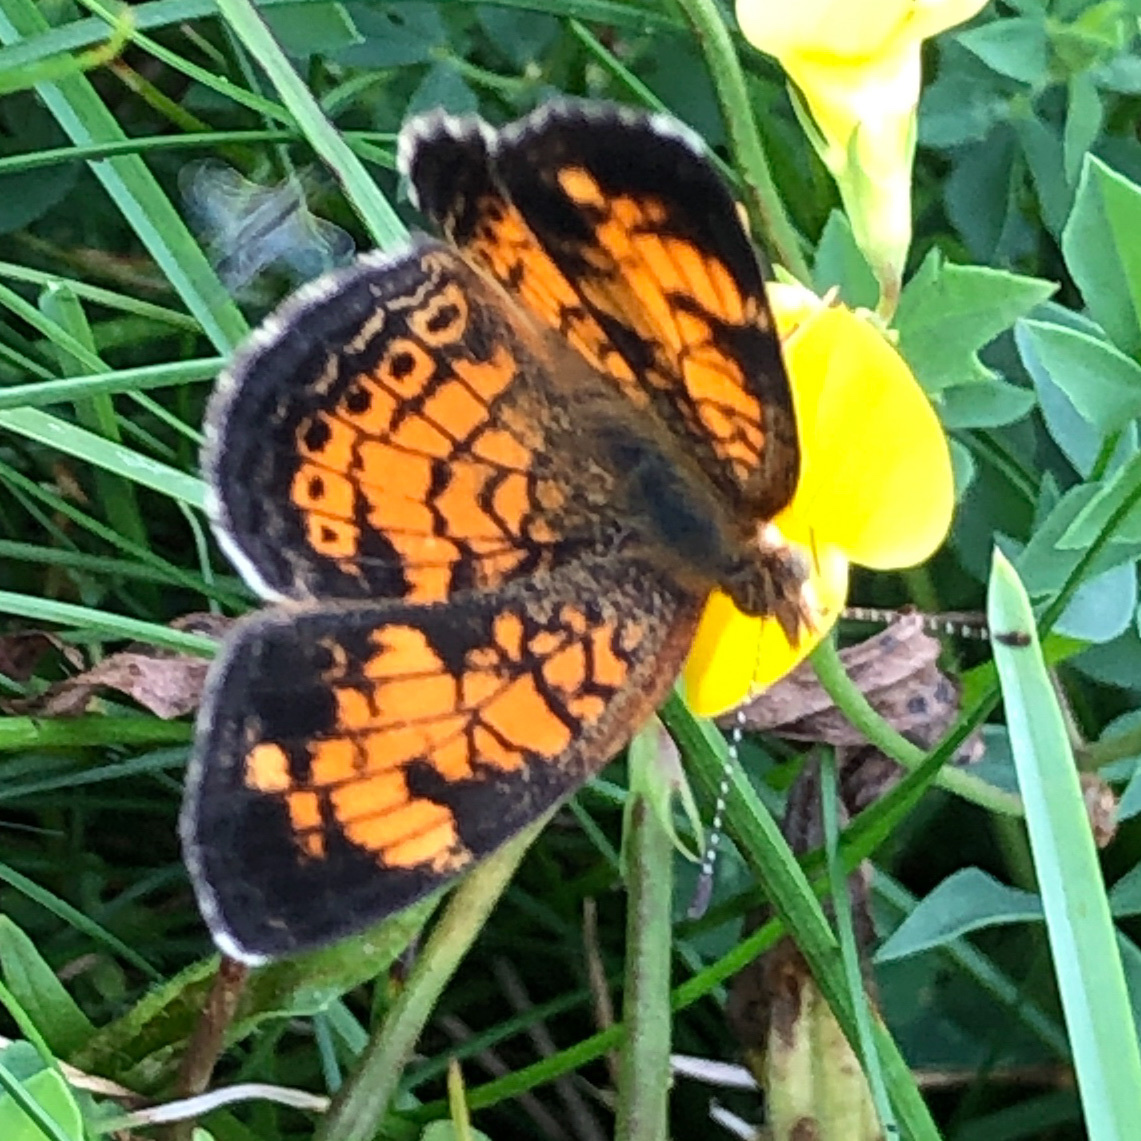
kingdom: Animalia
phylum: Arthropoda
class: Insecta
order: Lepidoptera
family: Nymphalidae
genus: Phyciodes
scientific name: Phyciodes tharos
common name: Pearl crescent
